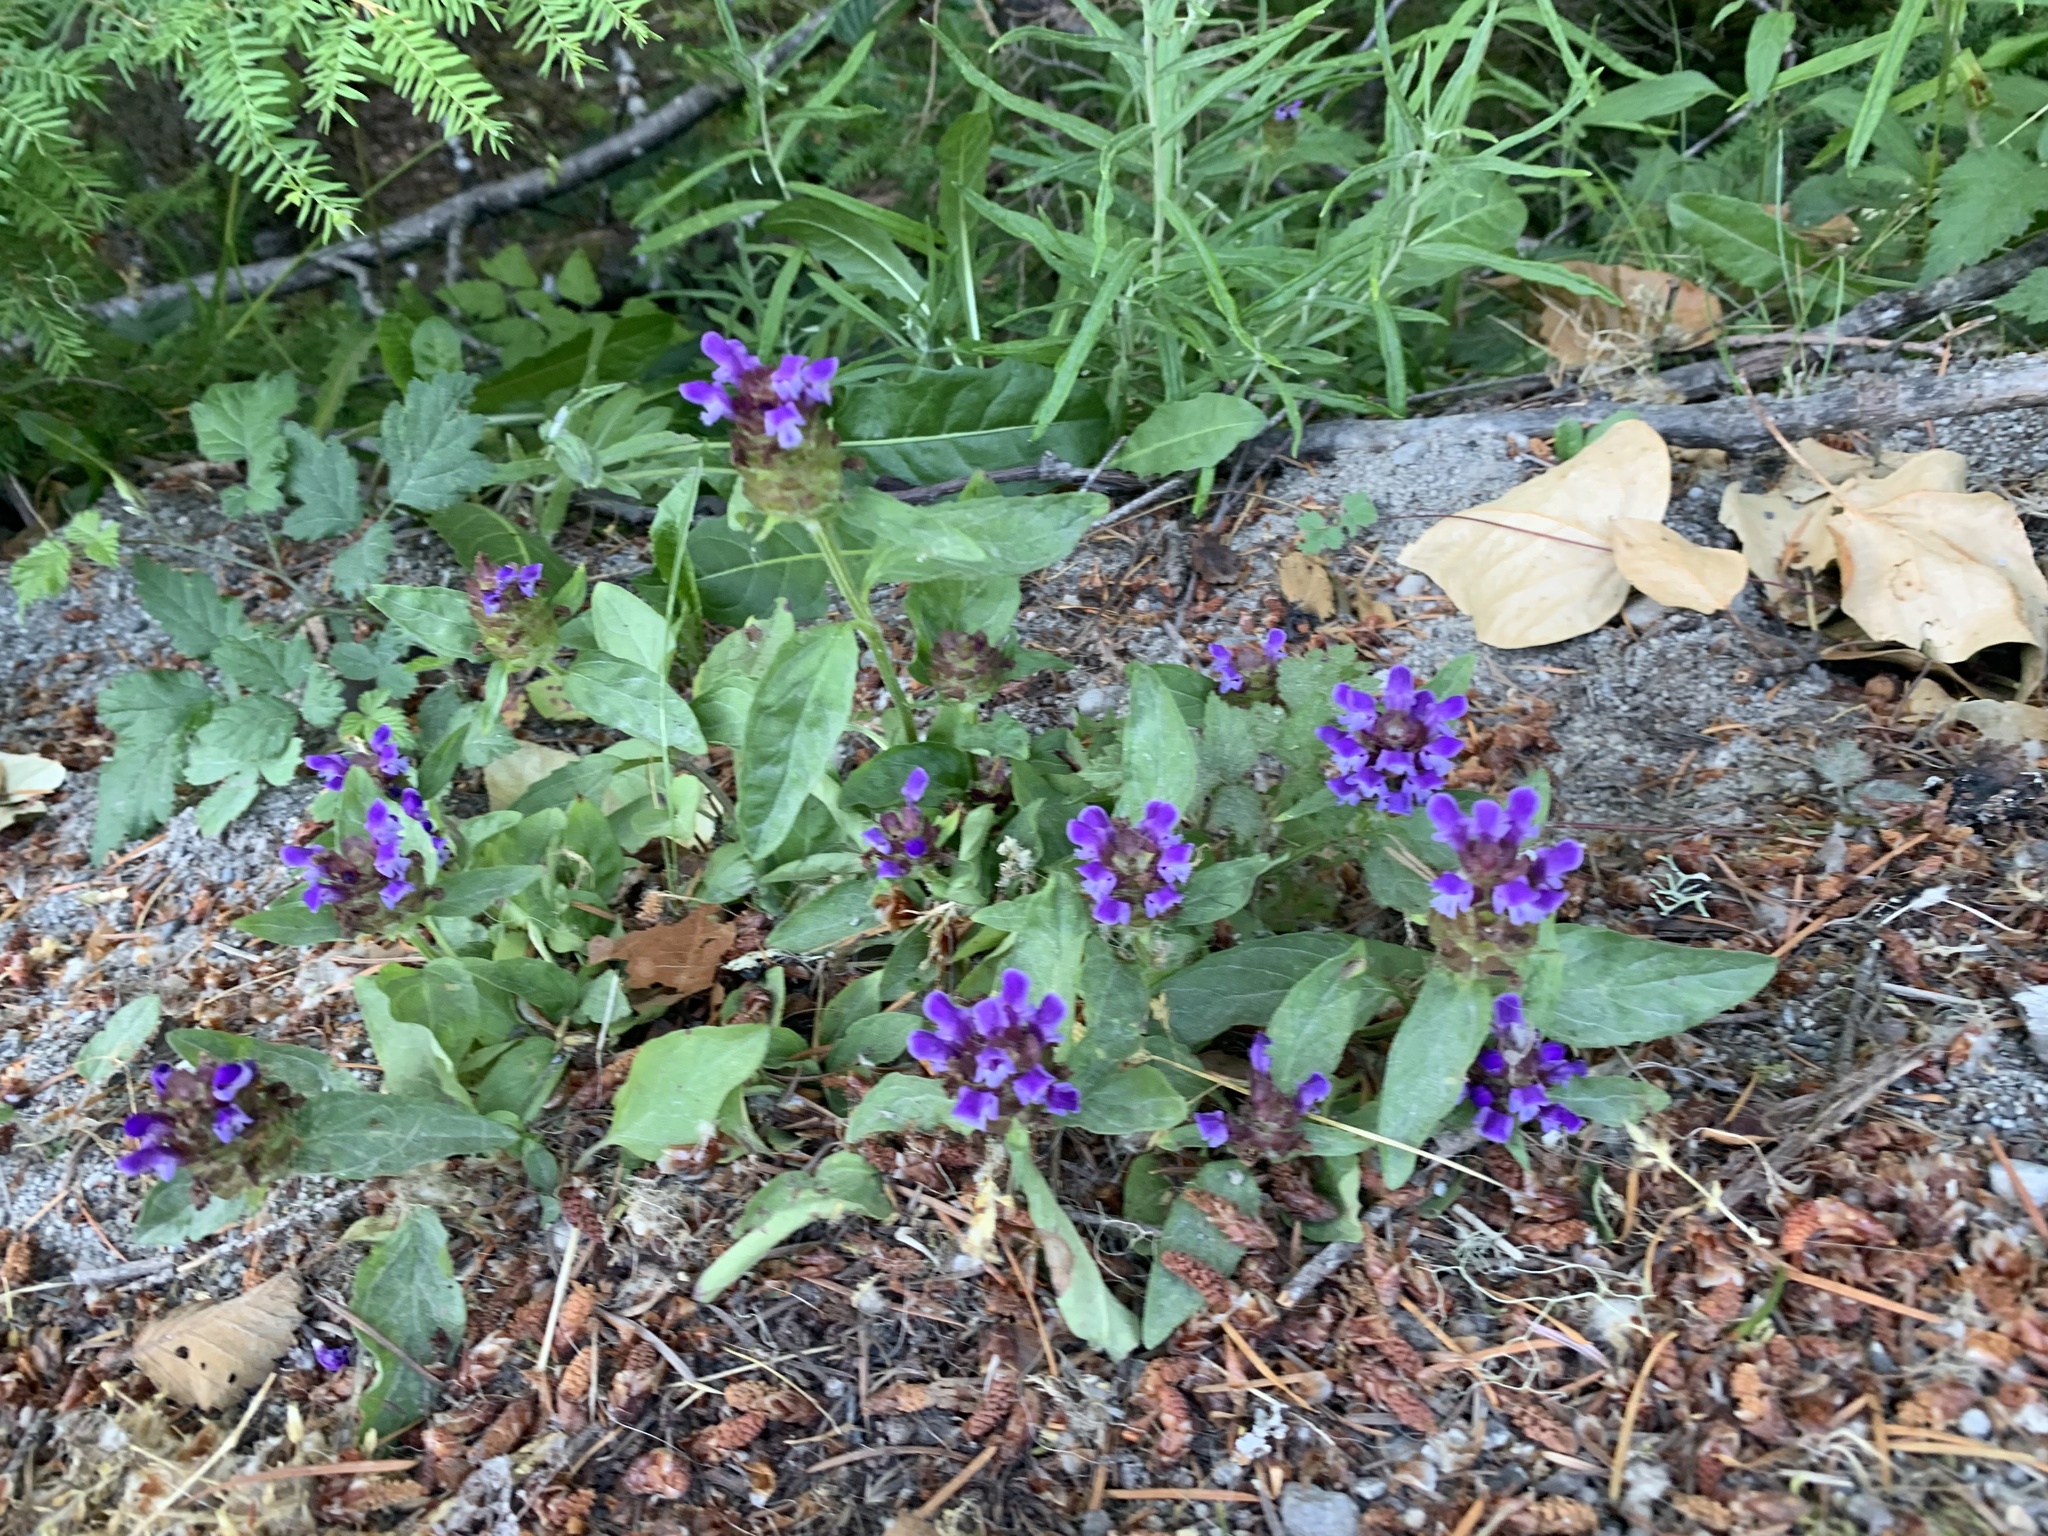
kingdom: Plantae
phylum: Tracheophyta
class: Magnoliopsida
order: Lamiales
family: Lamiaceae
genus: Prunella
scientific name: Prunella vulgaris
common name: Heal-all
